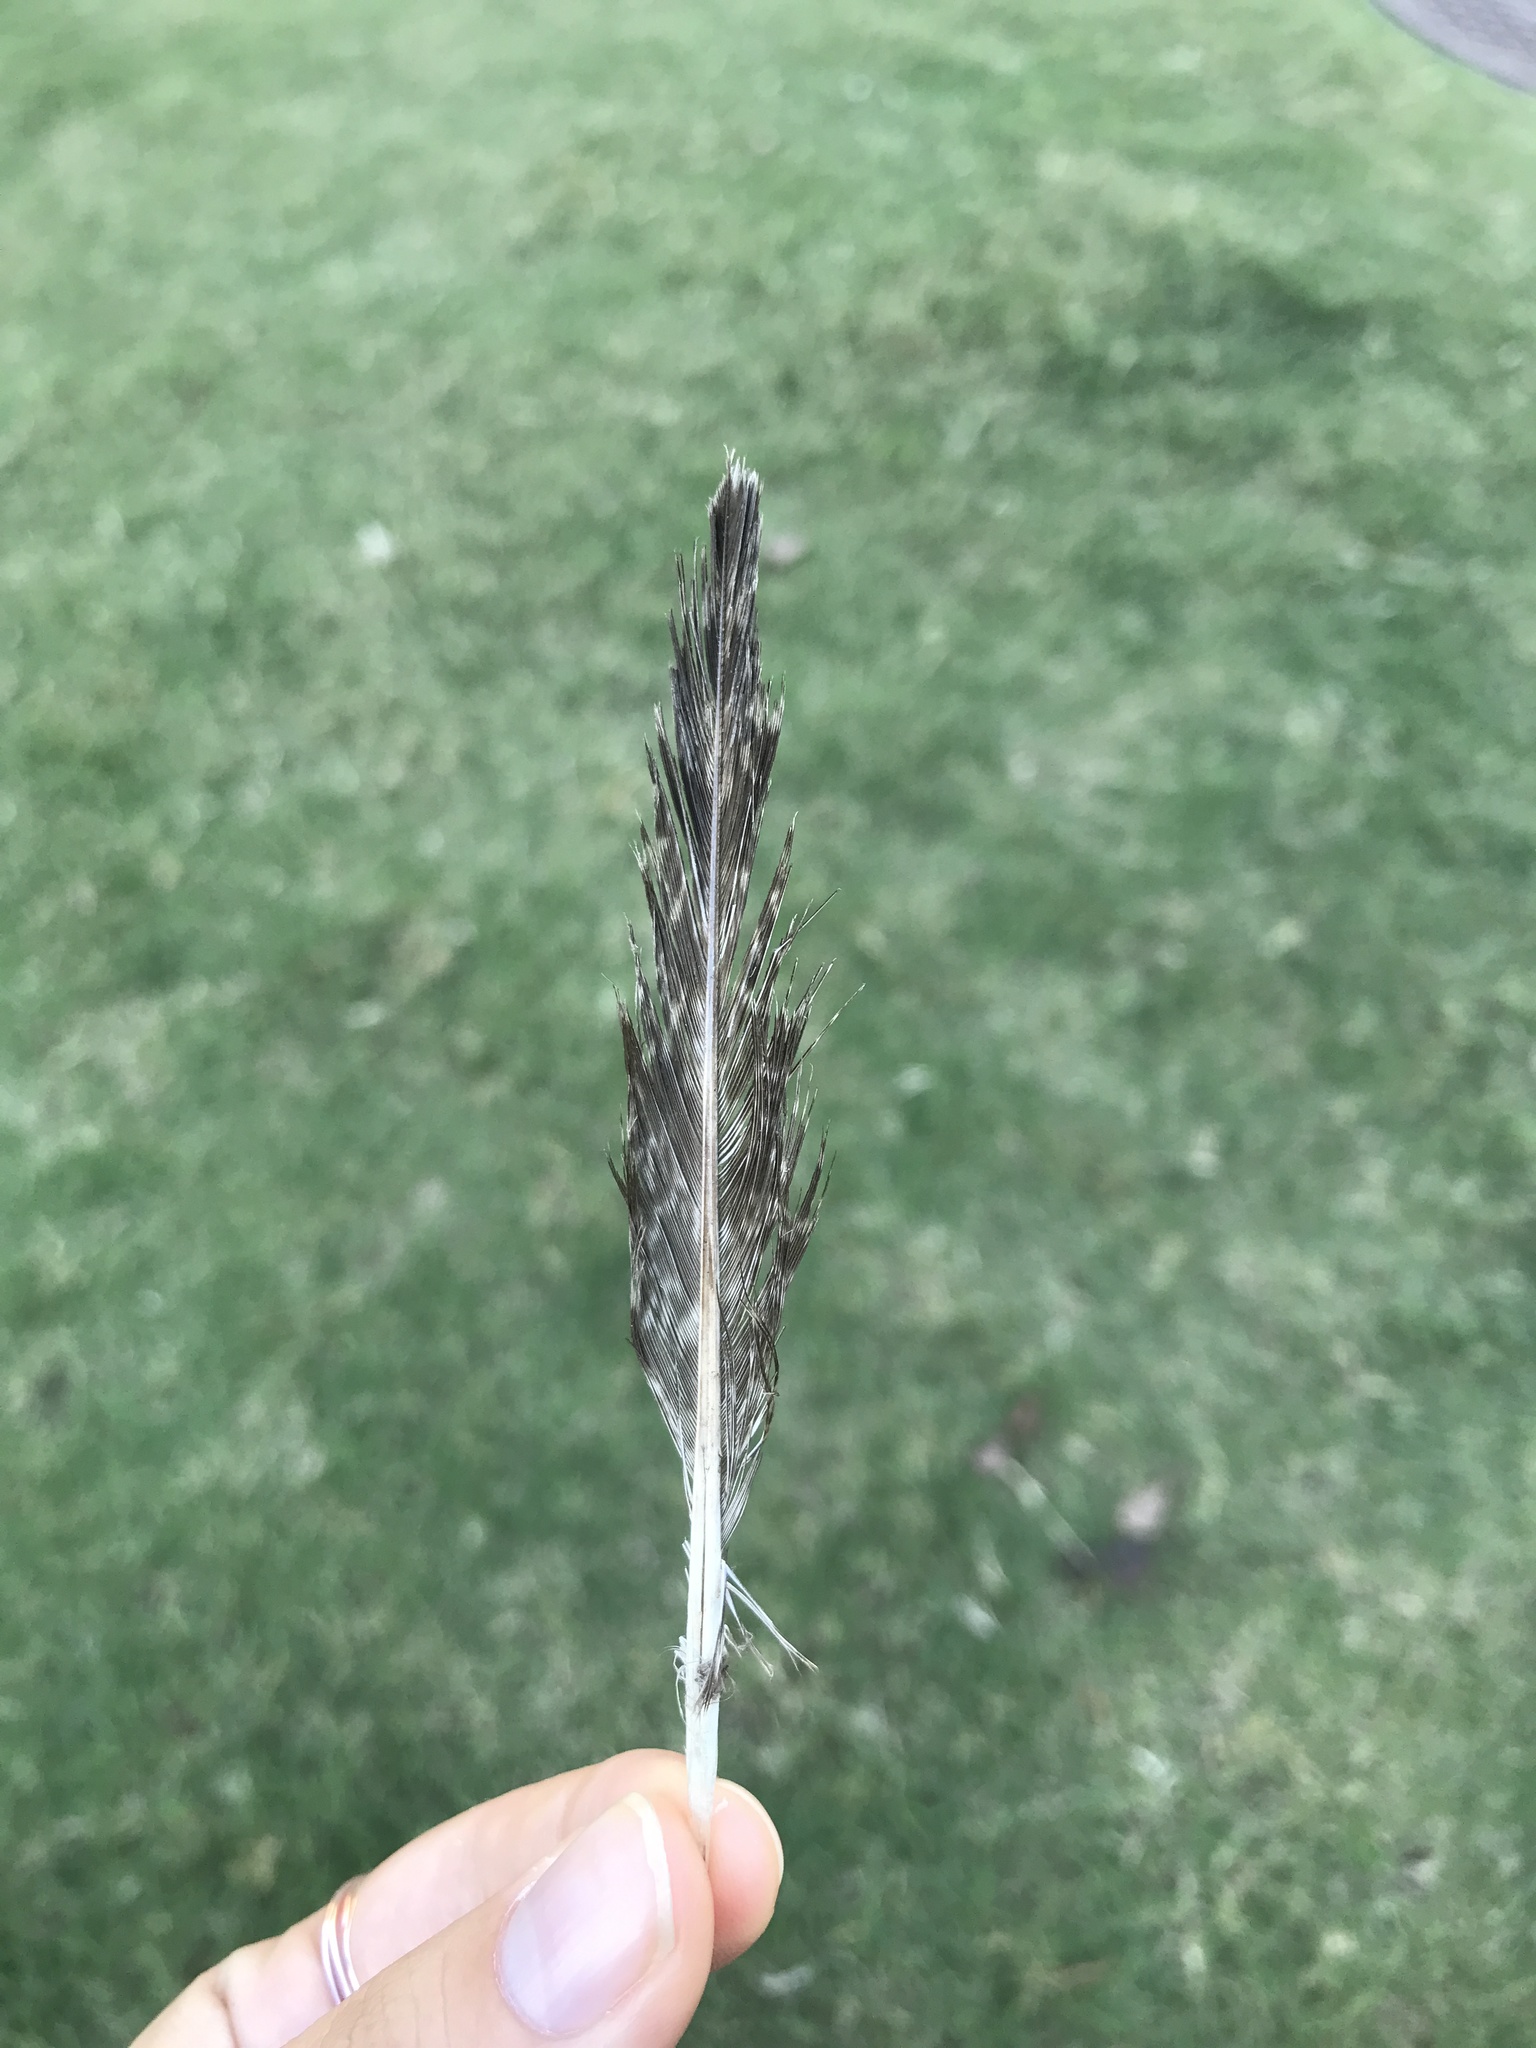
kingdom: Animalia
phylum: Chordata
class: Aves
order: Caprimulgiformes
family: Caprimulgidae
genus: Chordeiles
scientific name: Chordeiles minor
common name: Common nighthawk
